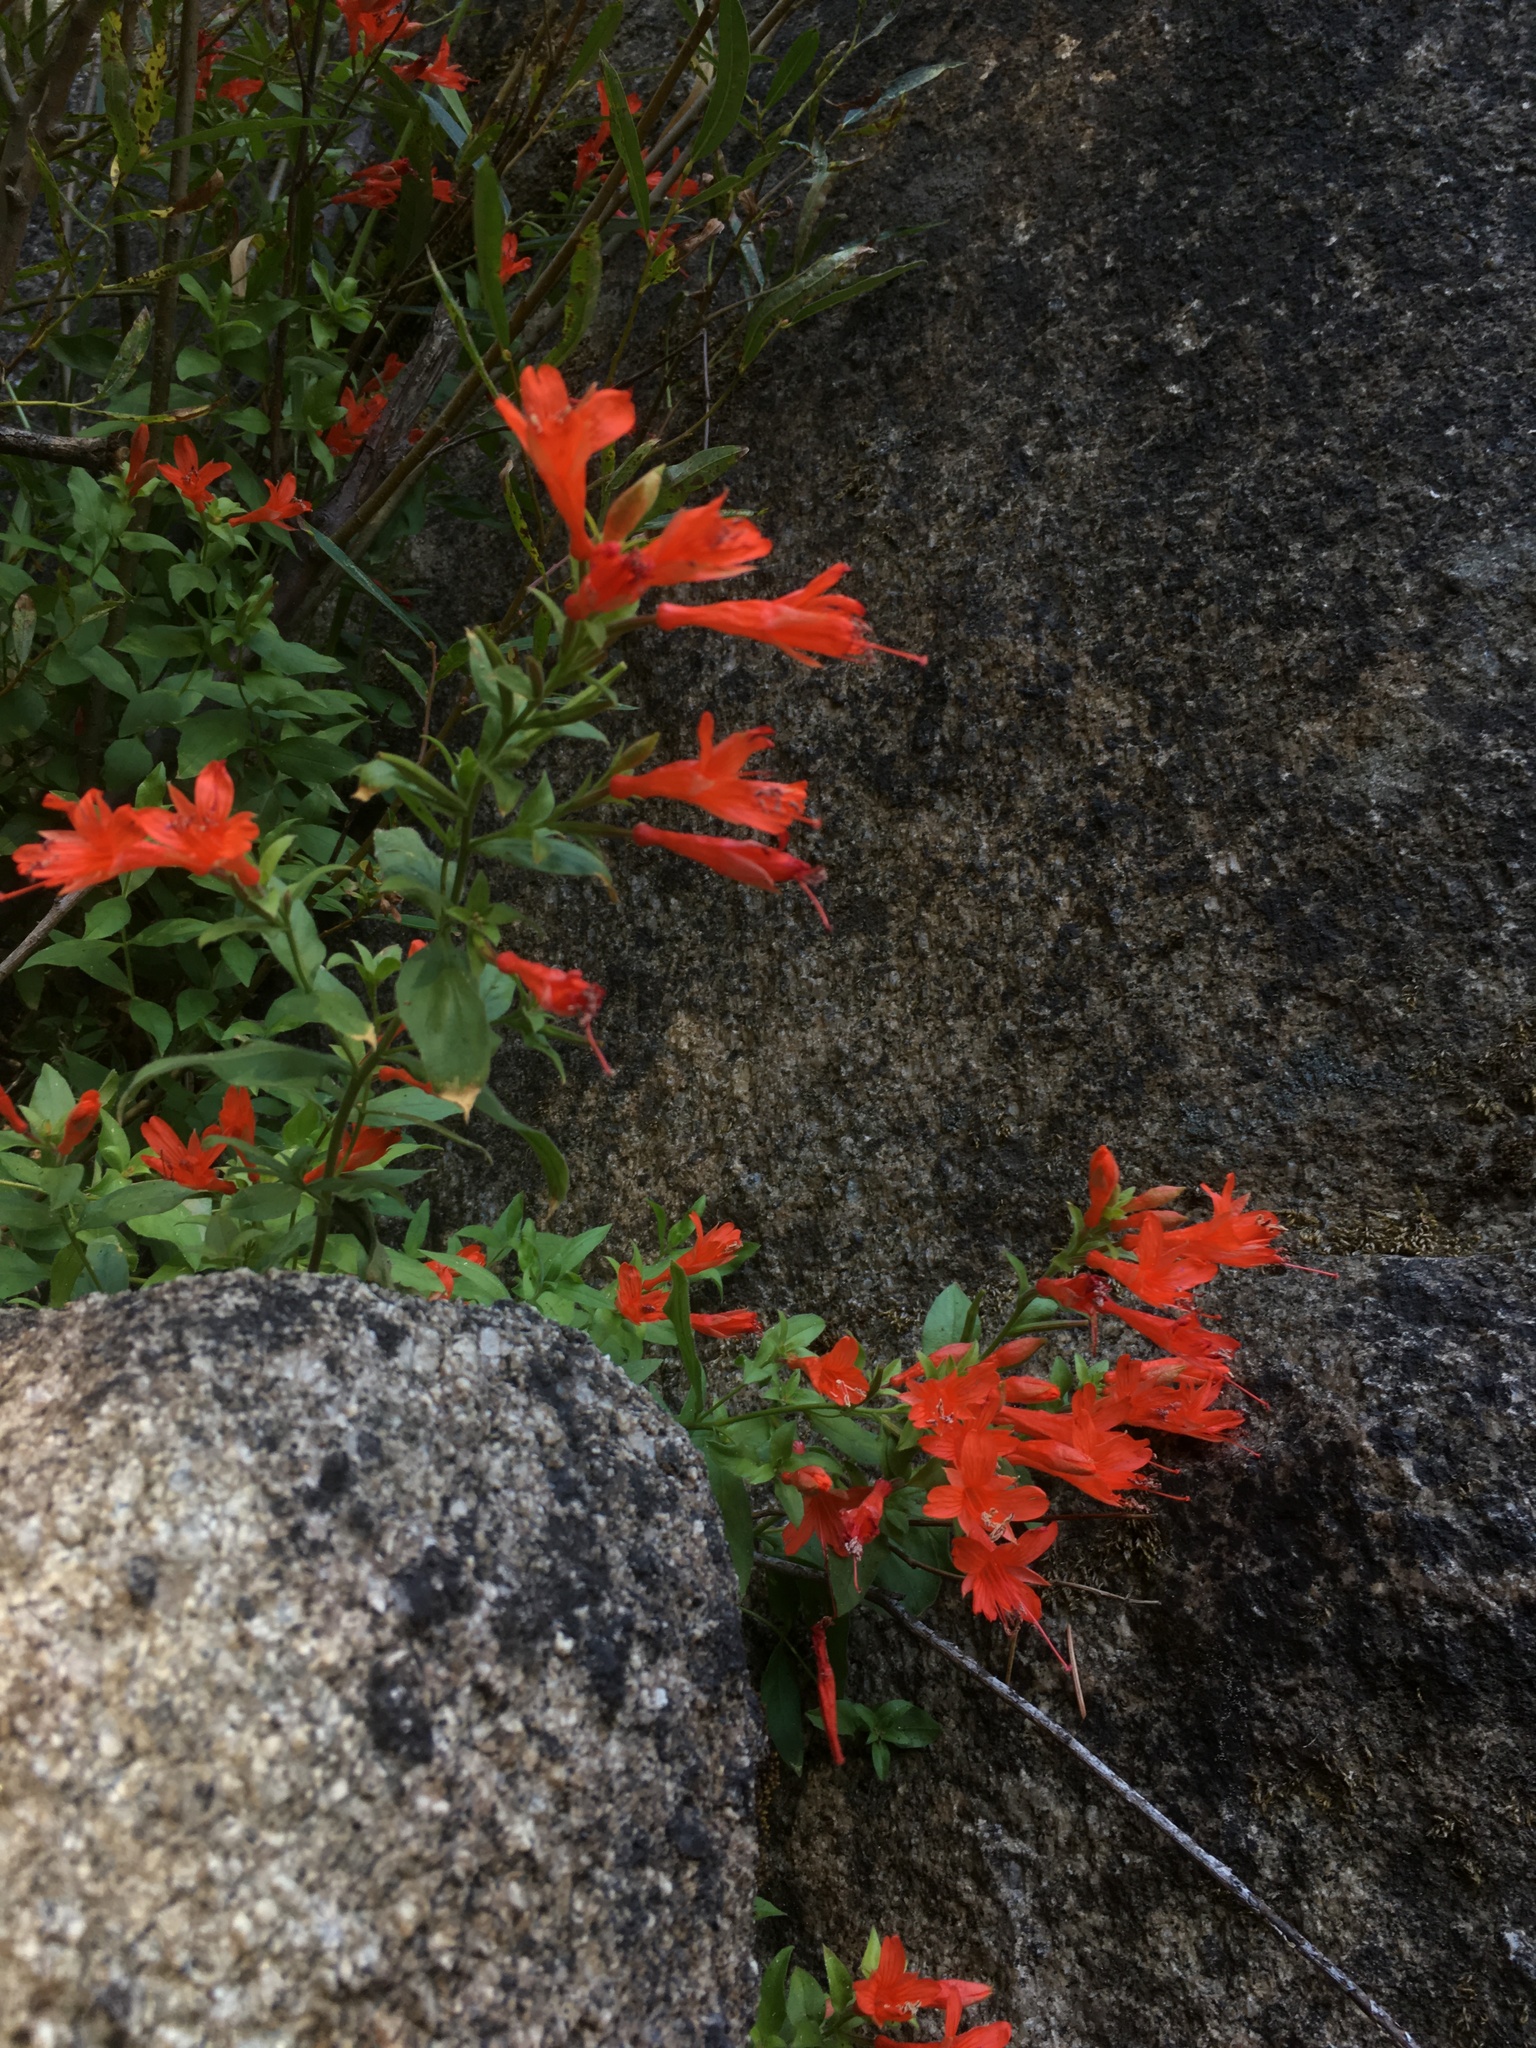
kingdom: Plantae
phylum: Tracheophyta
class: Magnoliopsida
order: Myrtales
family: Onagraceae
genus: Epilobium
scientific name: Epilobium canum
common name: California-fuchsia
